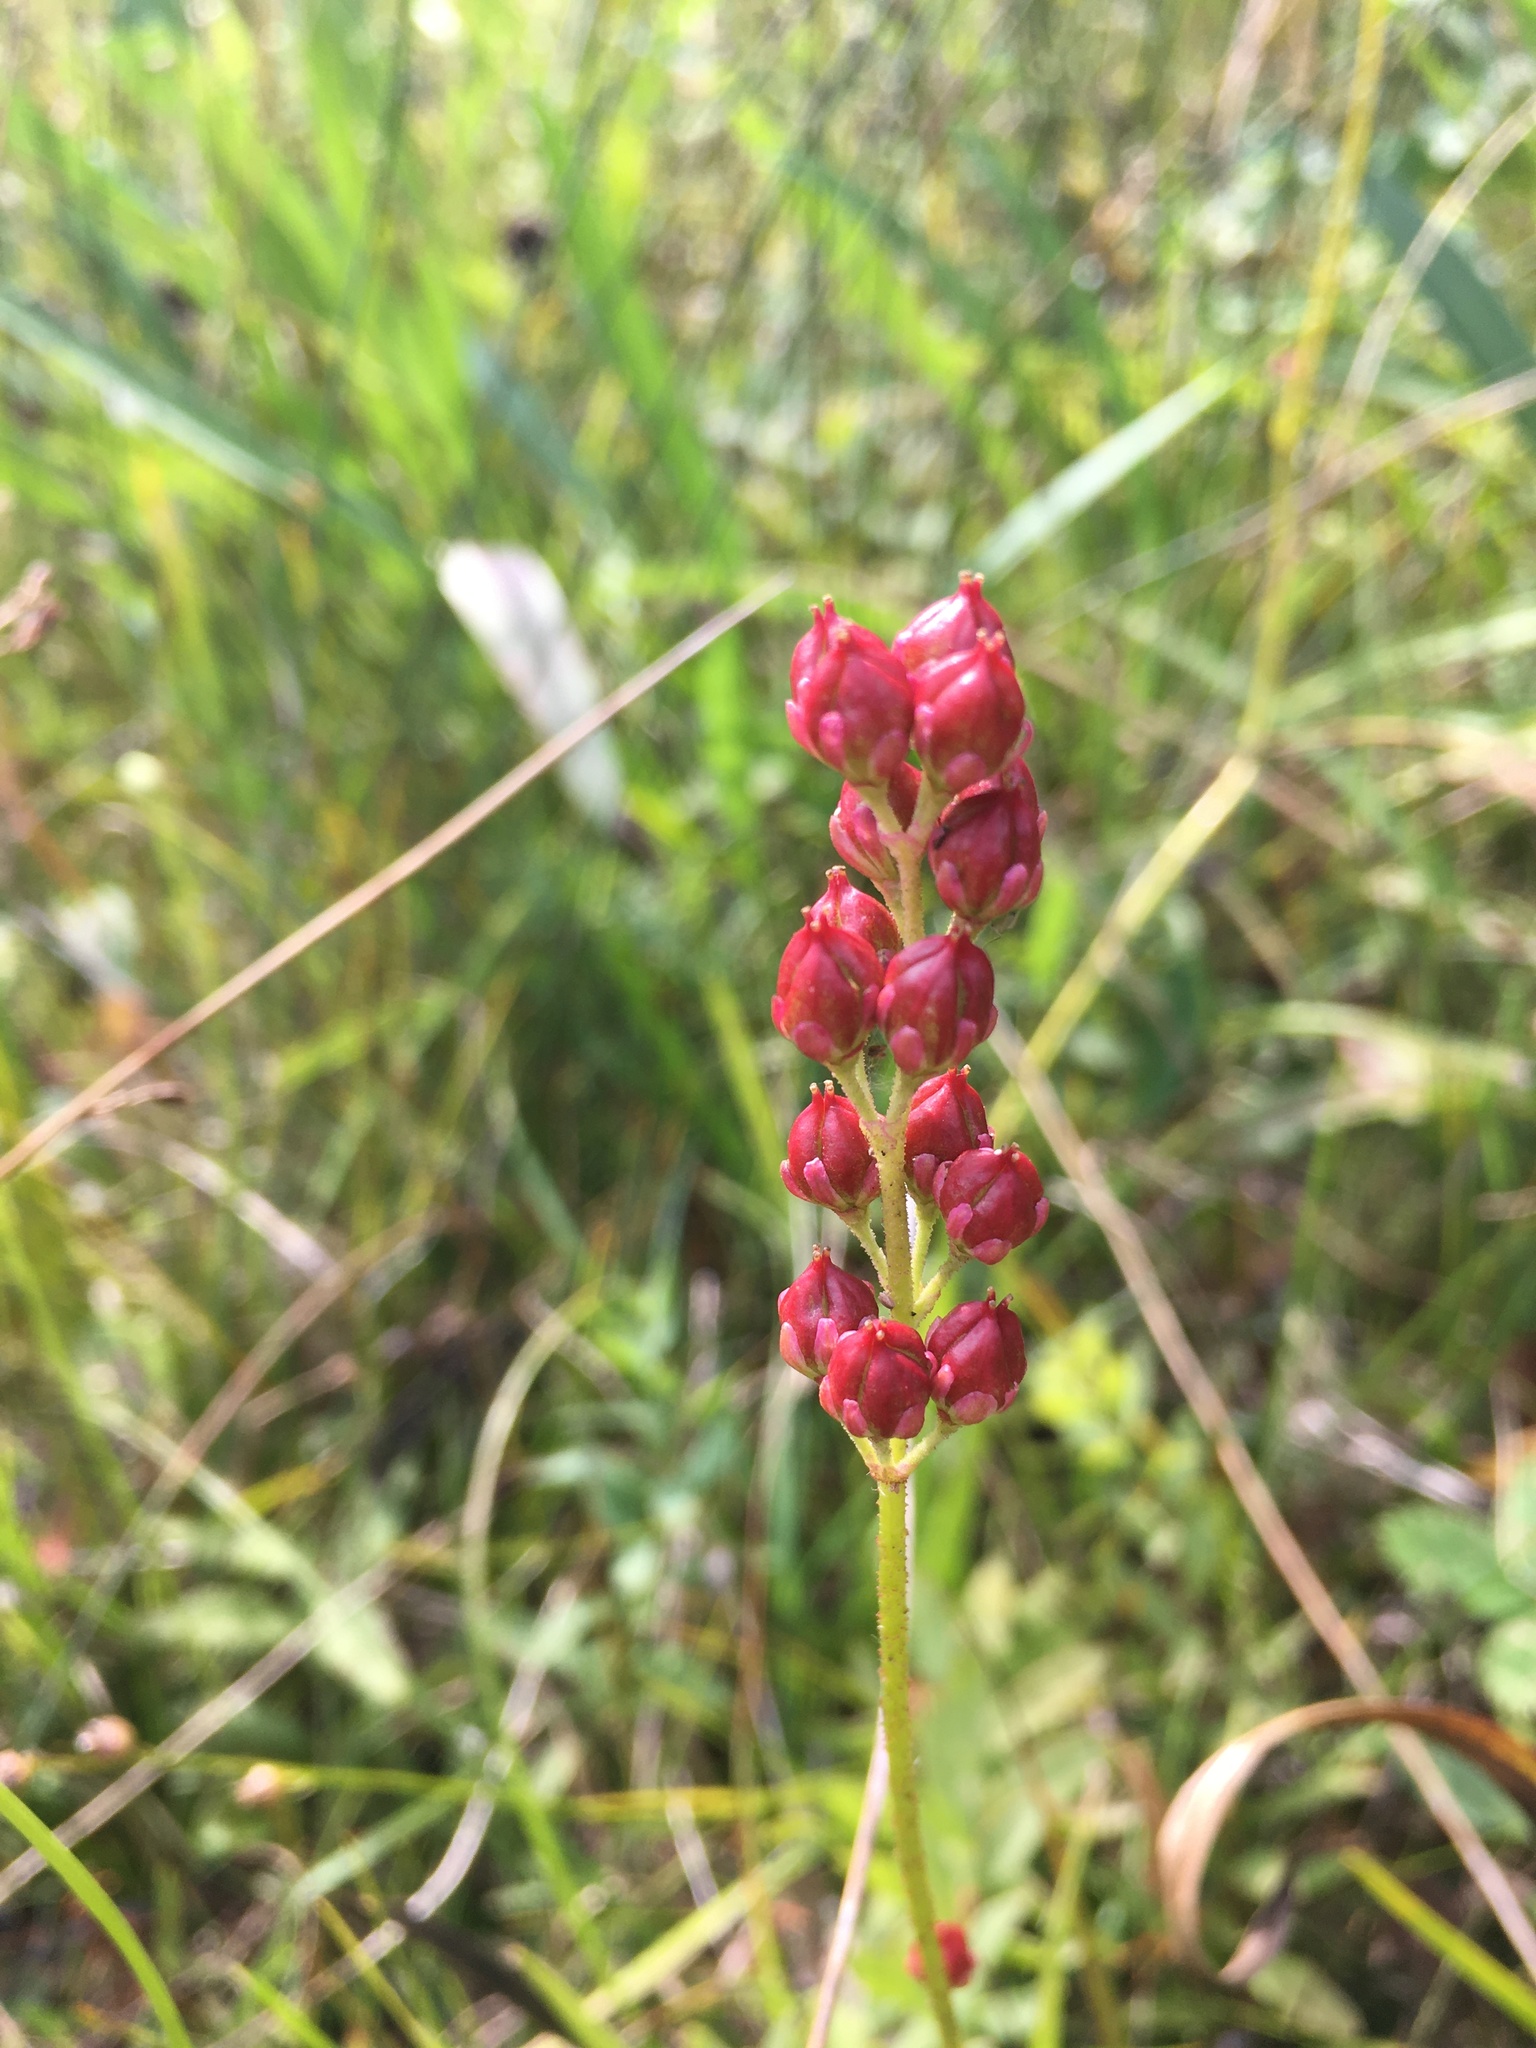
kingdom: Plantae
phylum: Tracheophyta
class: Liliopsida
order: Alismatales
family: Tofieldiaceae
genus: Triantha
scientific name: Triantha glutinosa
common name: Glutinous tofieldia
